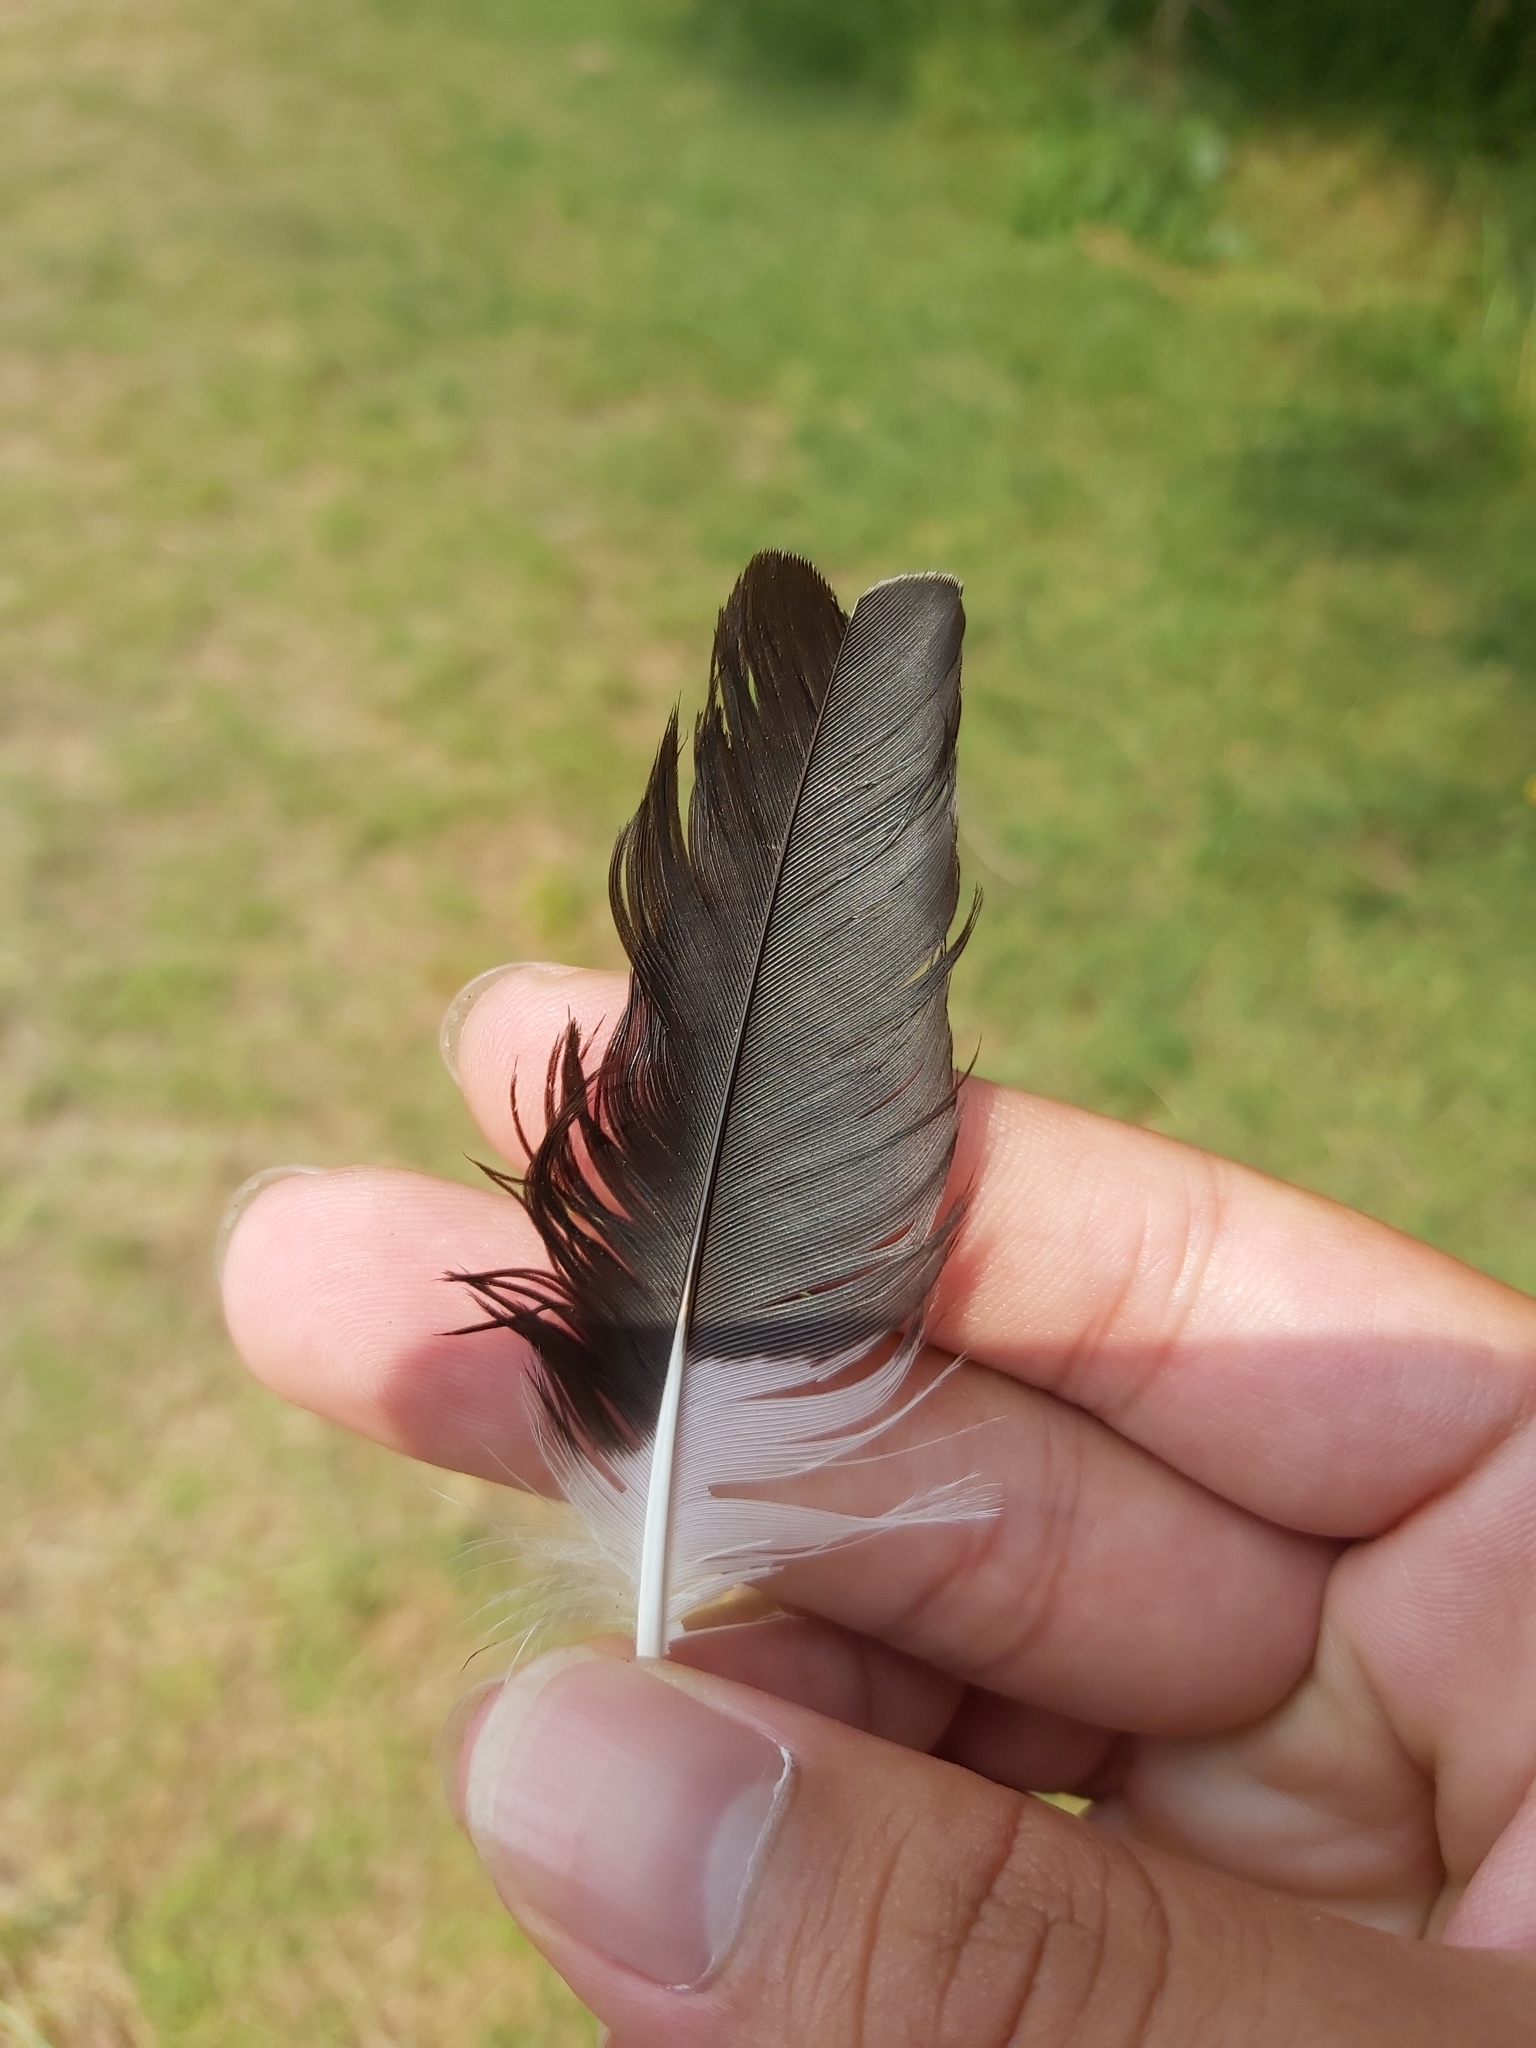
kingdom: Animalia
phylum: Chordata
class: Aves
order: Passeriformes
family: Monarchidae
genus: Grallina
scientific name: Grallina cyanoleuca
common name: Magpie-lark
